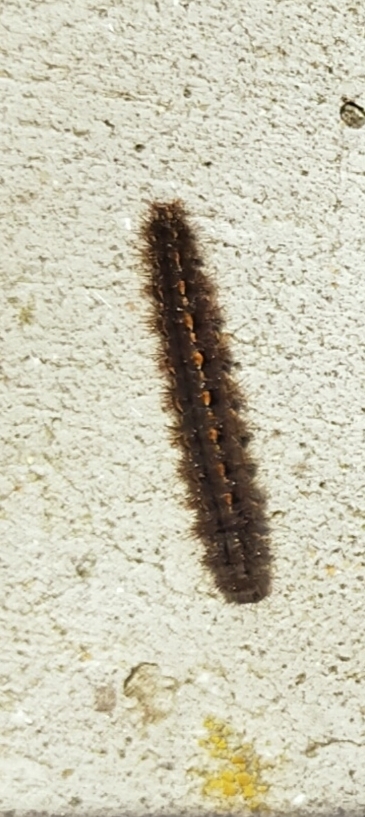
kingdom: Animalia
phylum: Arthropoda
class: Insecta
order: Lepidoptera
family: Erebidae
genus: Manulea
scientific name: Manulea complana
